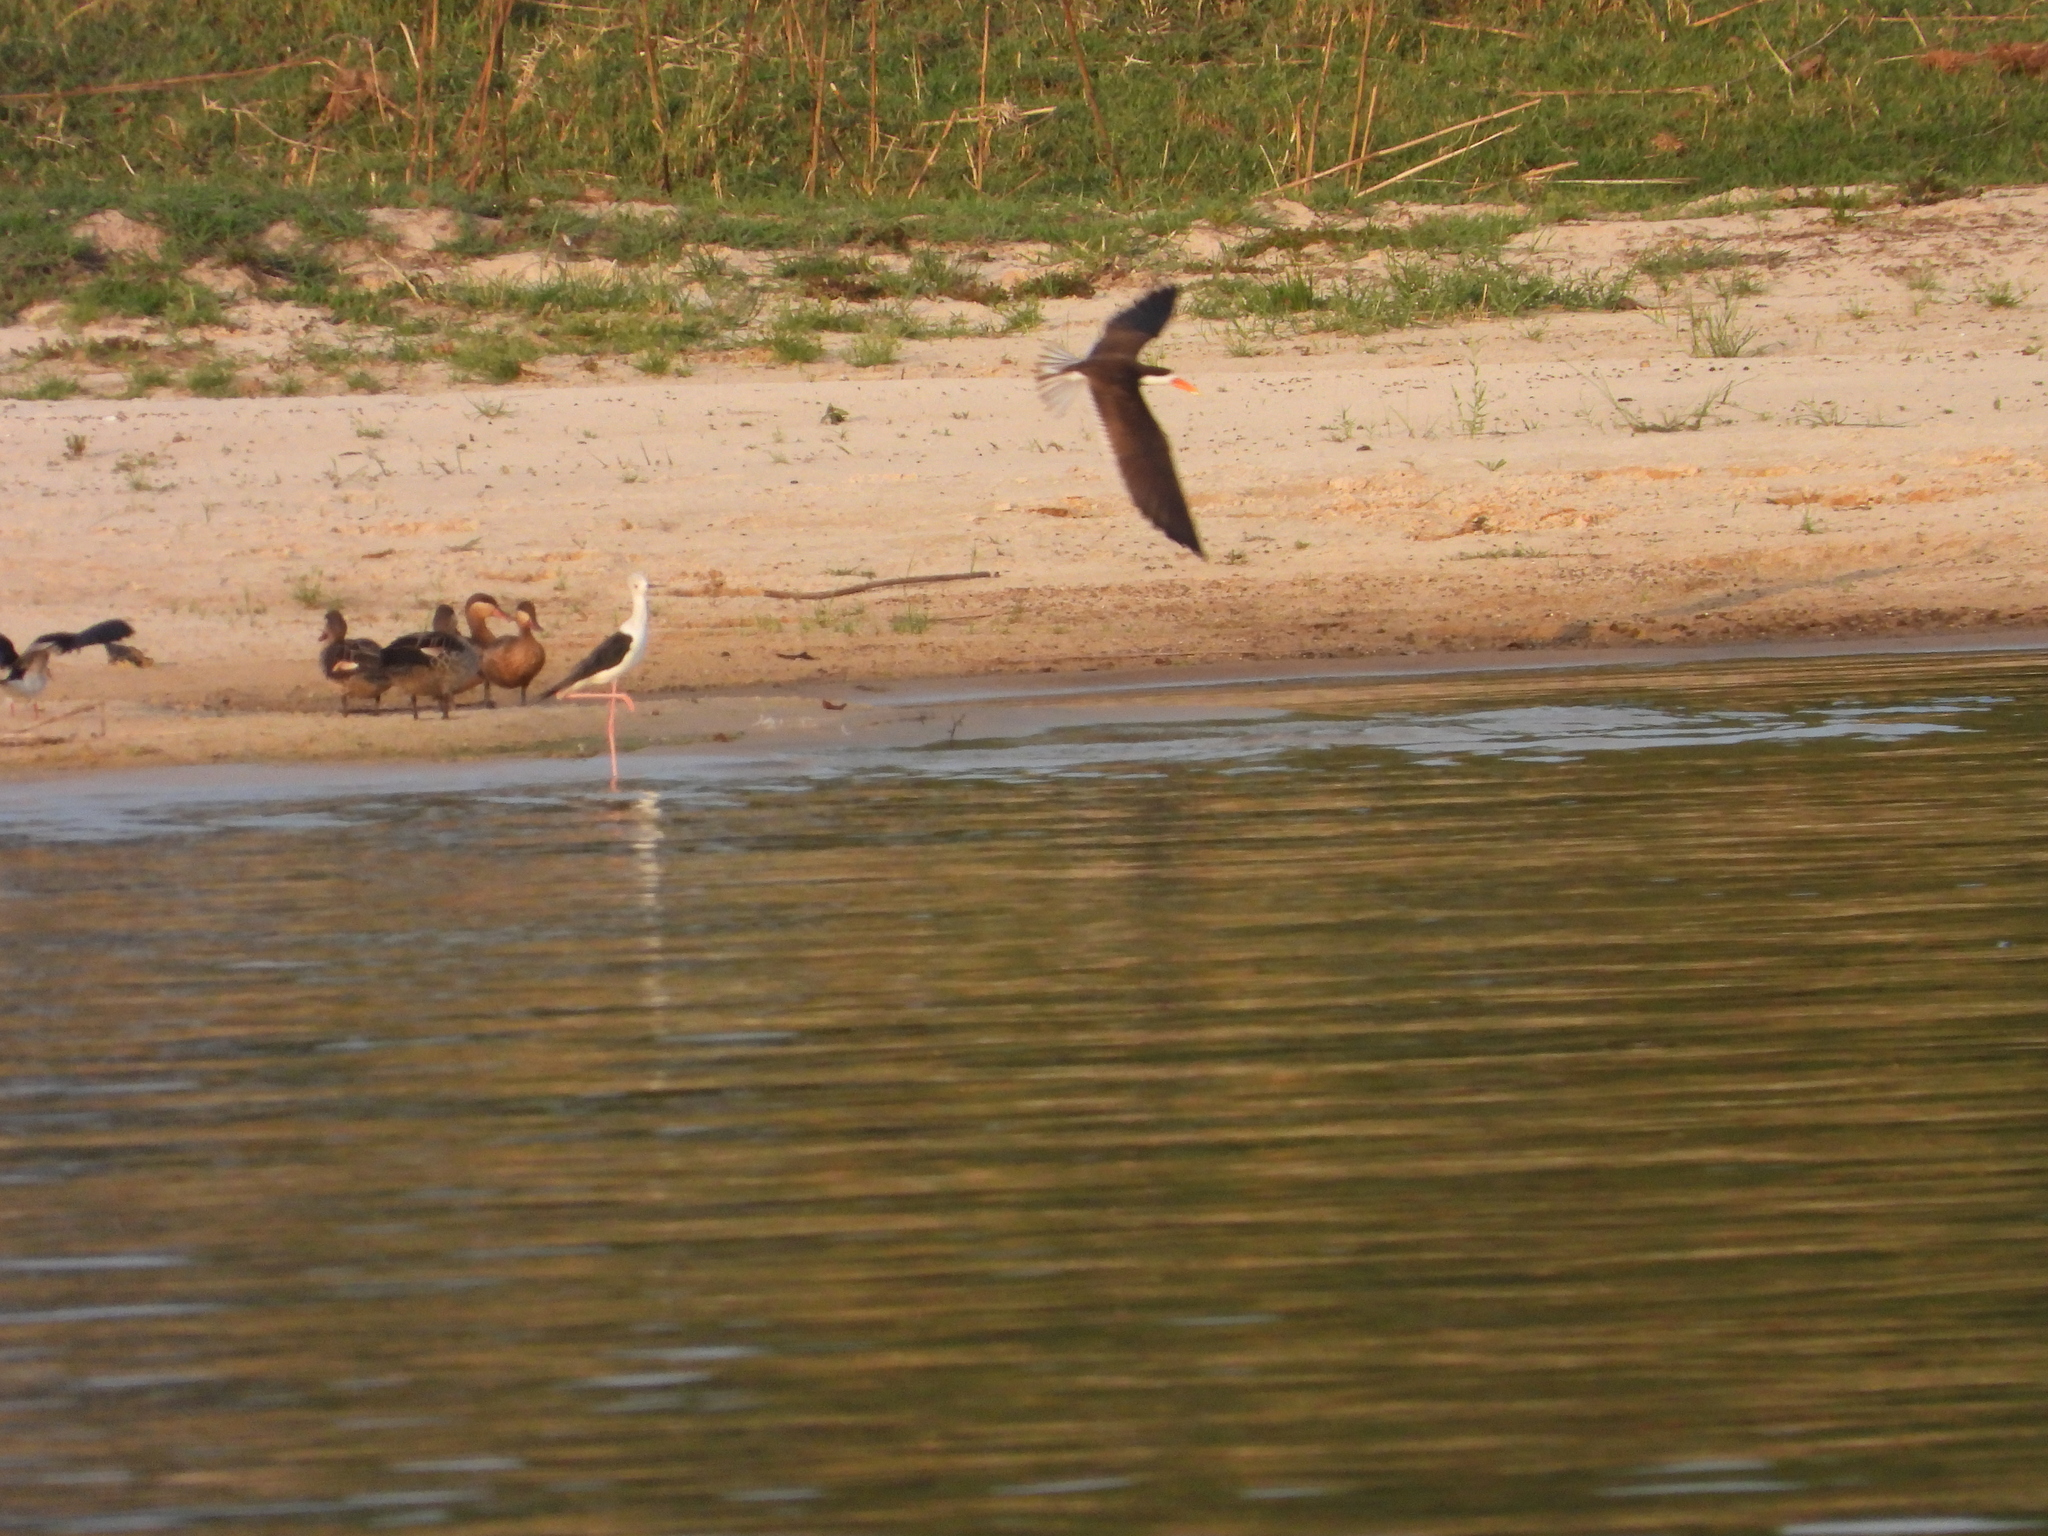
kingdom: Animalia
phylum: Chordata
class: Aves
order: Charadriiformes
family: Laridae
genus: Rynchops
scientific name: Rynchops flavirostris
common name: African skimmer
